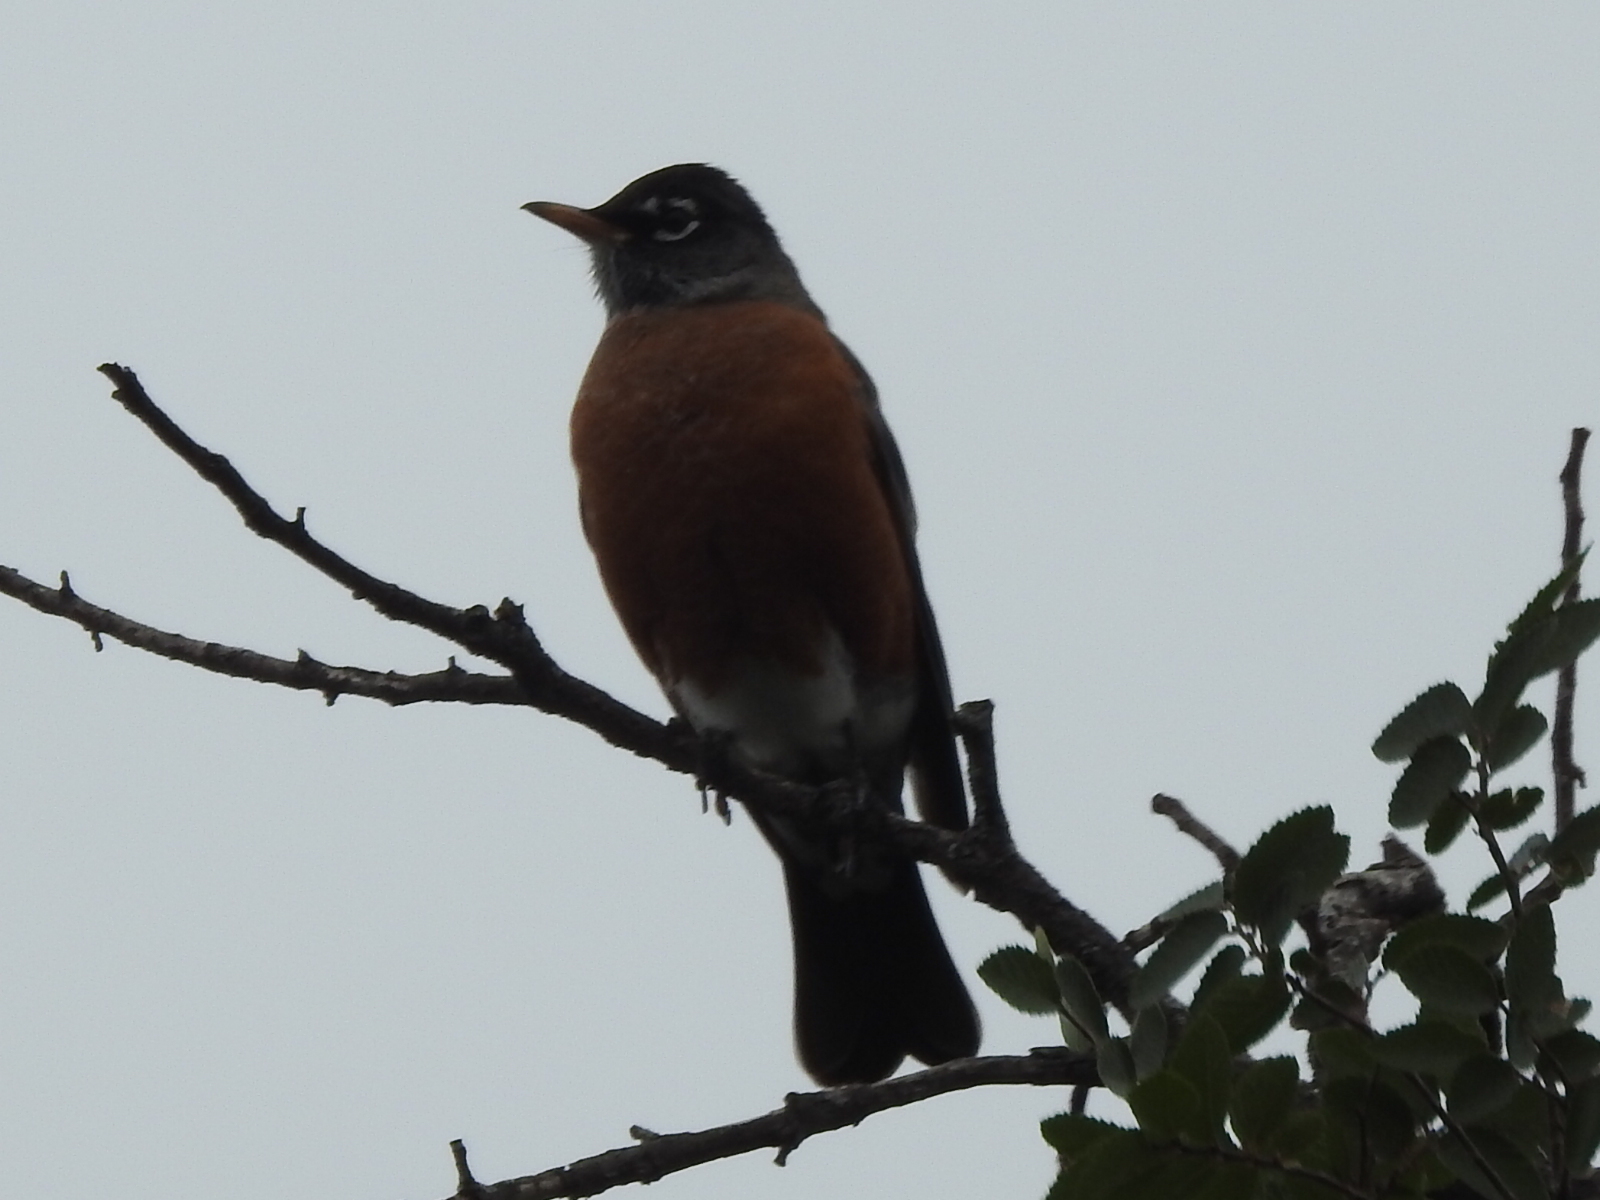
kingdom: Animalia
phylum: Chordata
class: Aves
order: Passeriformes
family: Turdidae
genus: Turdus
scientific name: Turdus migratorius
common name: American robin
